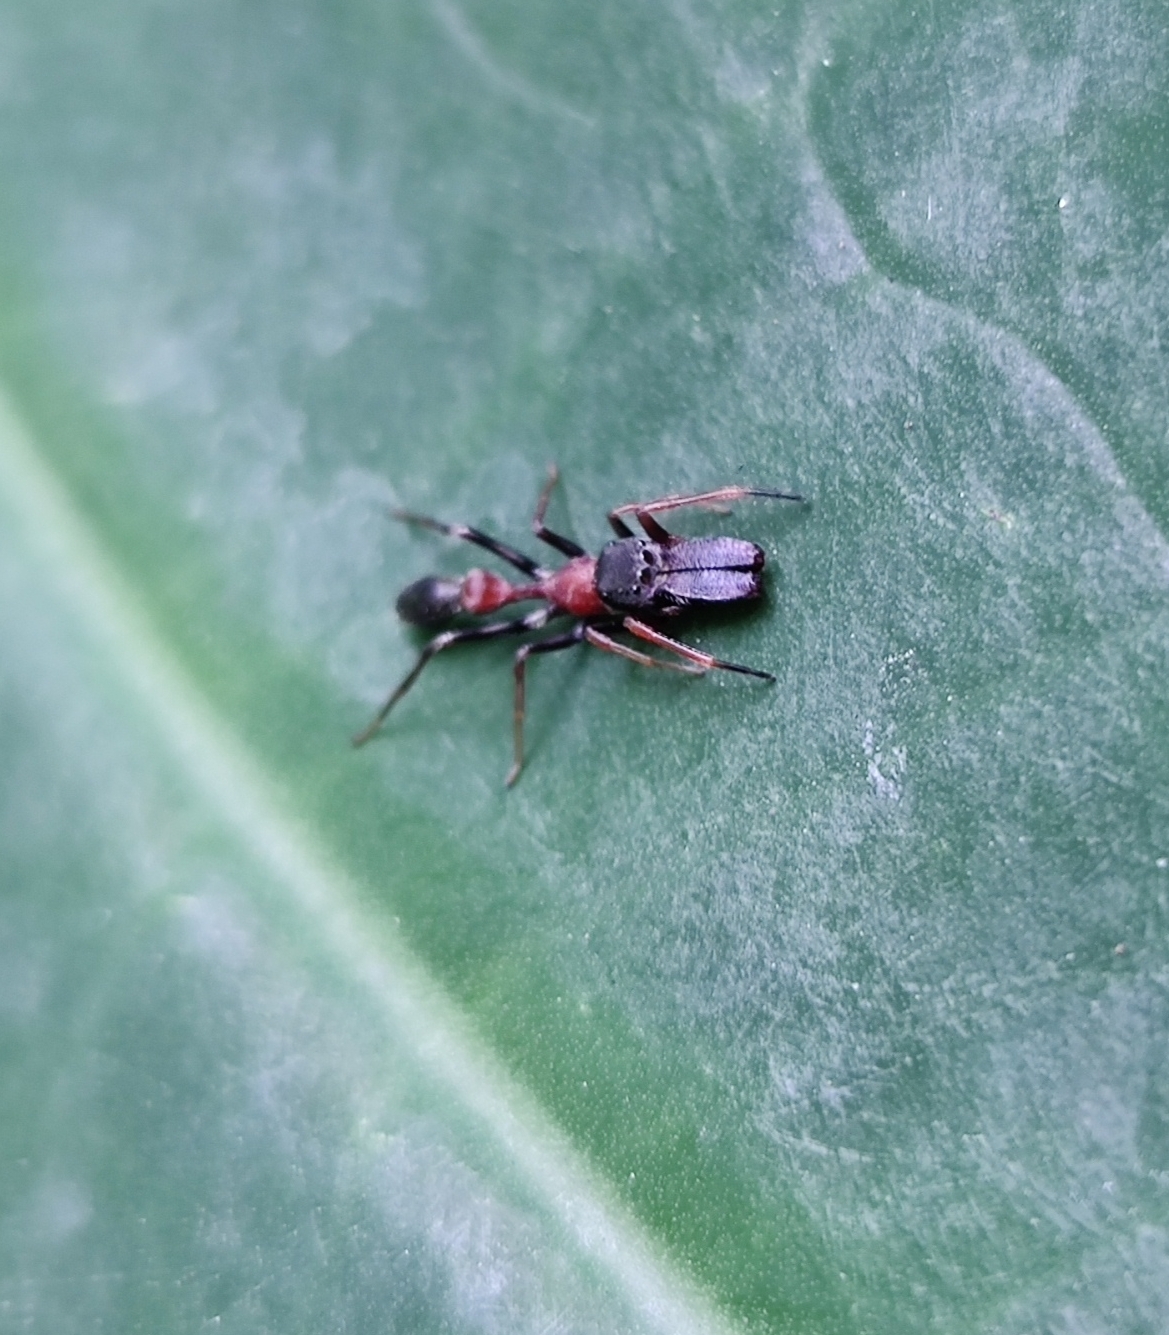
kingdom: Animalia
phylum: Arthropoda
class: Arachnida
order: Araneae
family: Salticidae
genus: Myrmarachne
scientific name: Myrmarachne melanocephala
